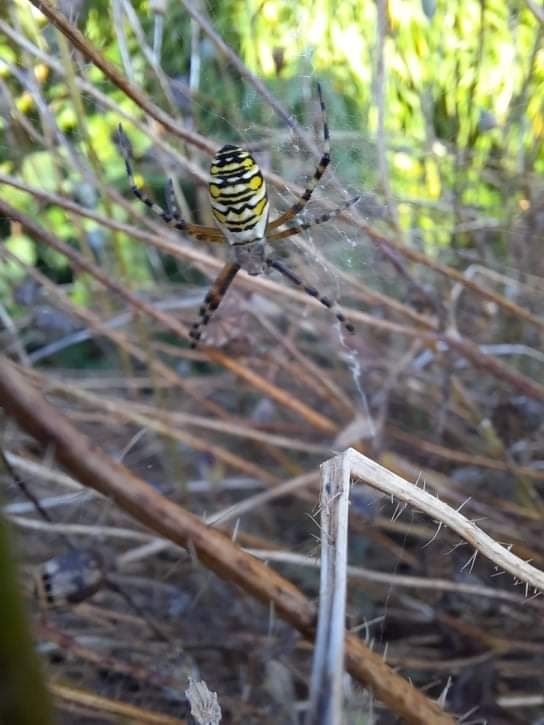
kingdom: Animalia
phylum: Arthropoda
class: Arachnida
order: Araneae
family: Araneidae
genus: Argiope
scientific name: Argiope bruennichi
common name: Wasp spider
